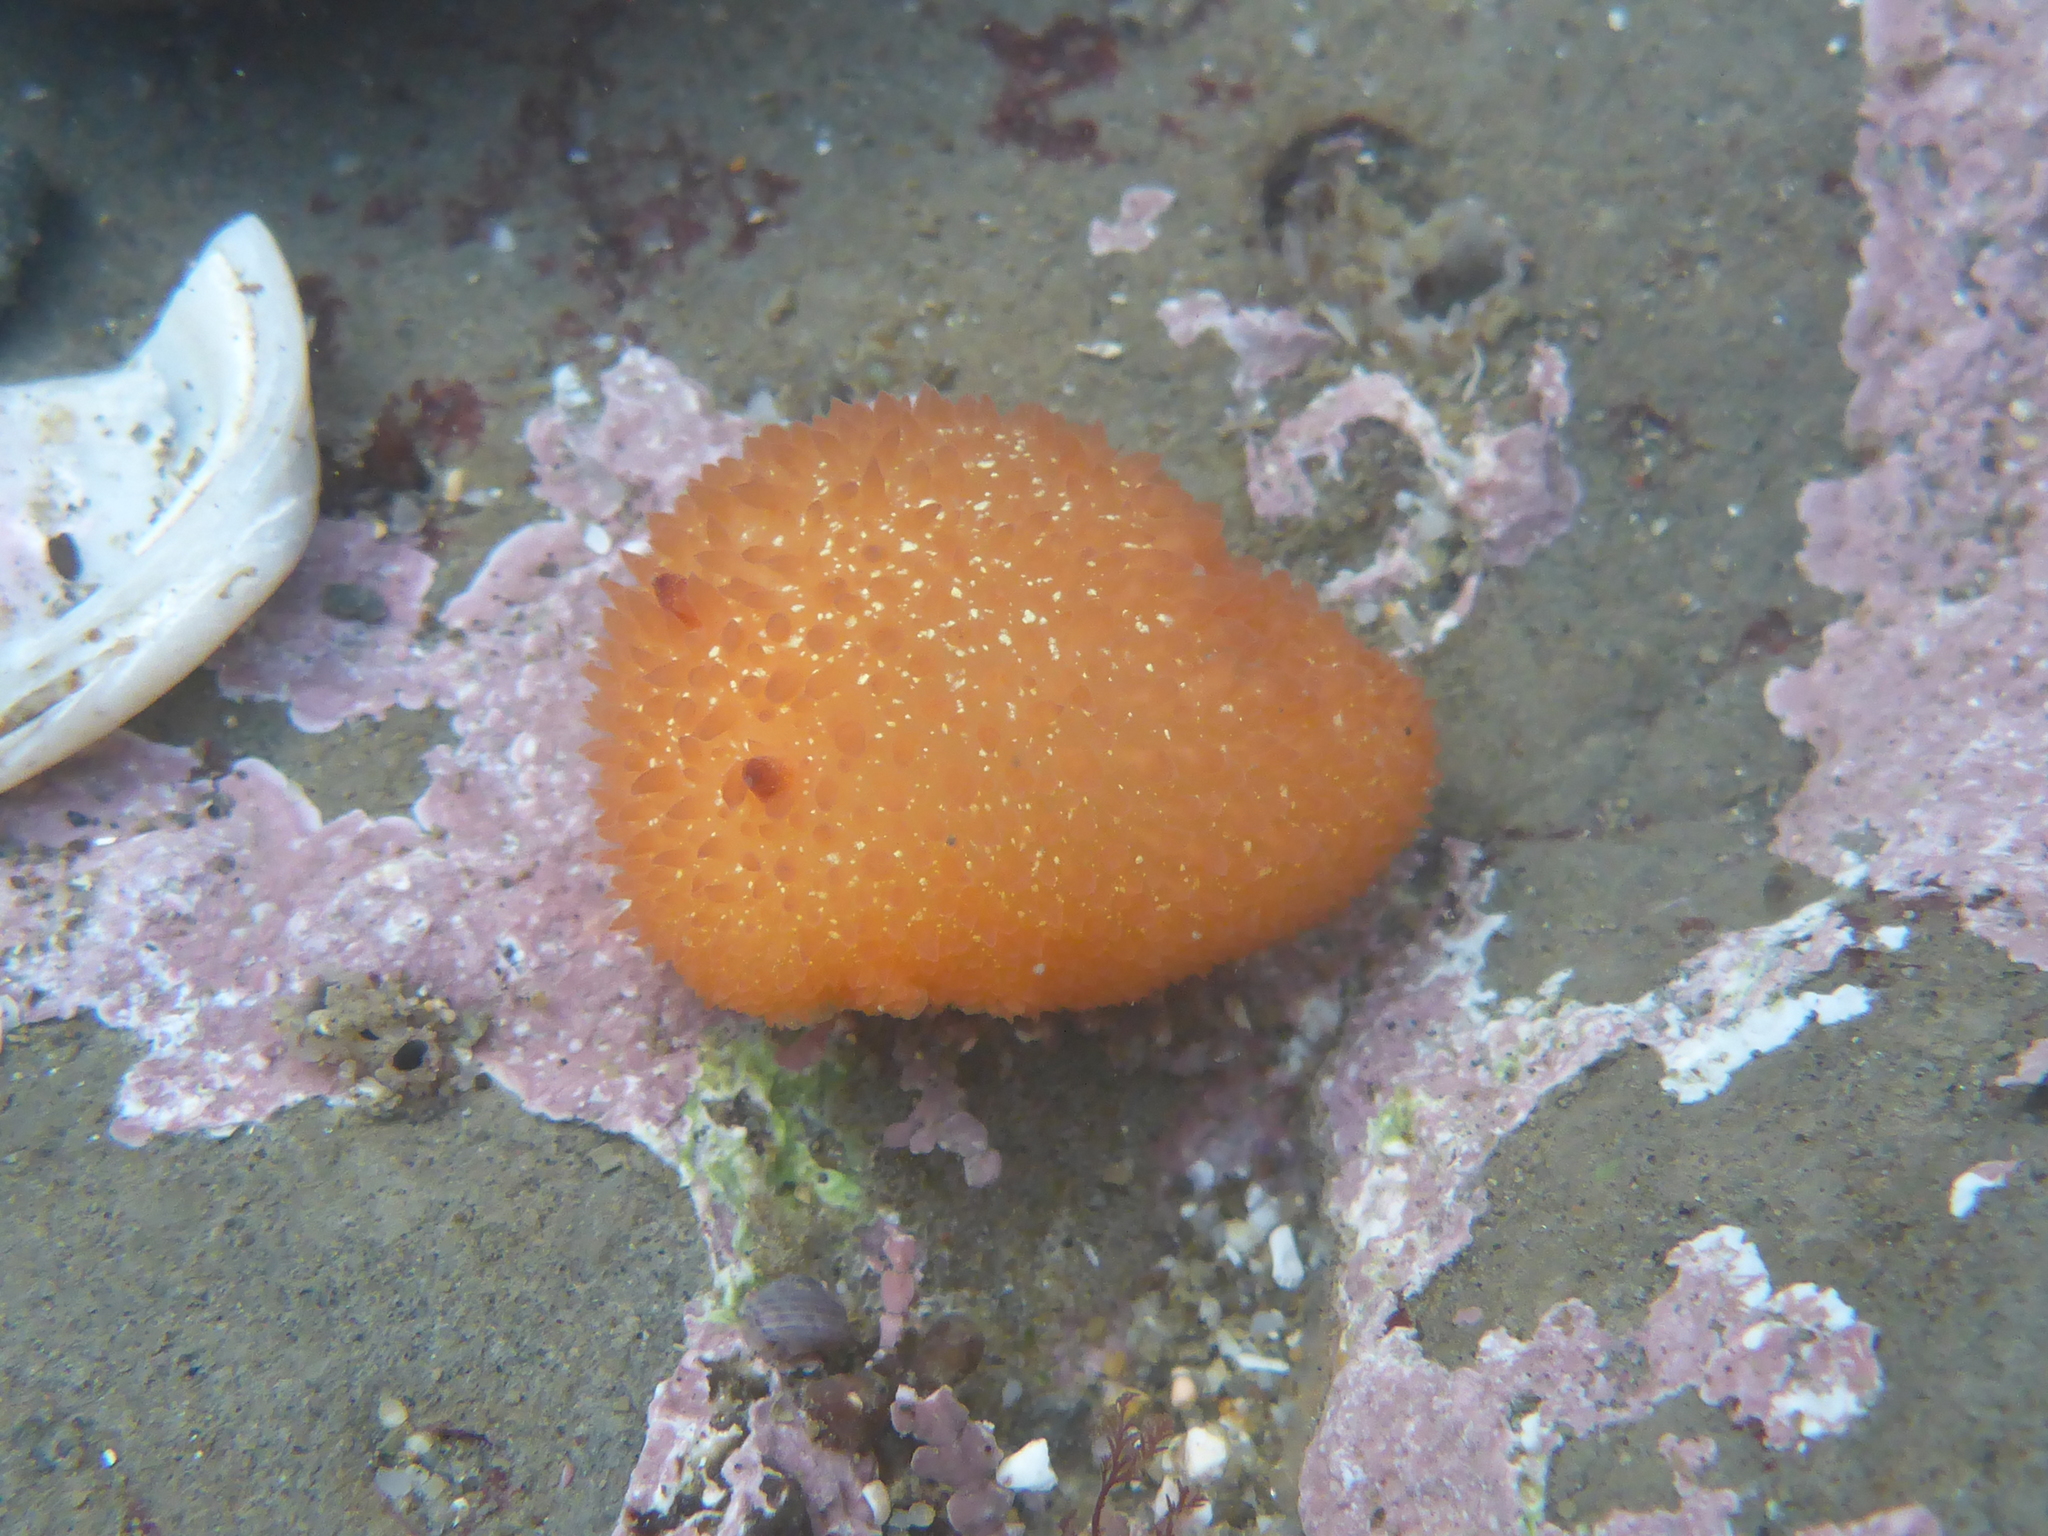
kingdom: Animalia
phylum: Mollusca
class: Gastropoda
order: Nudibranchia
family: Onchidorididae
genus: Acanthodoris
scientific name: Acanthodoris lutea
